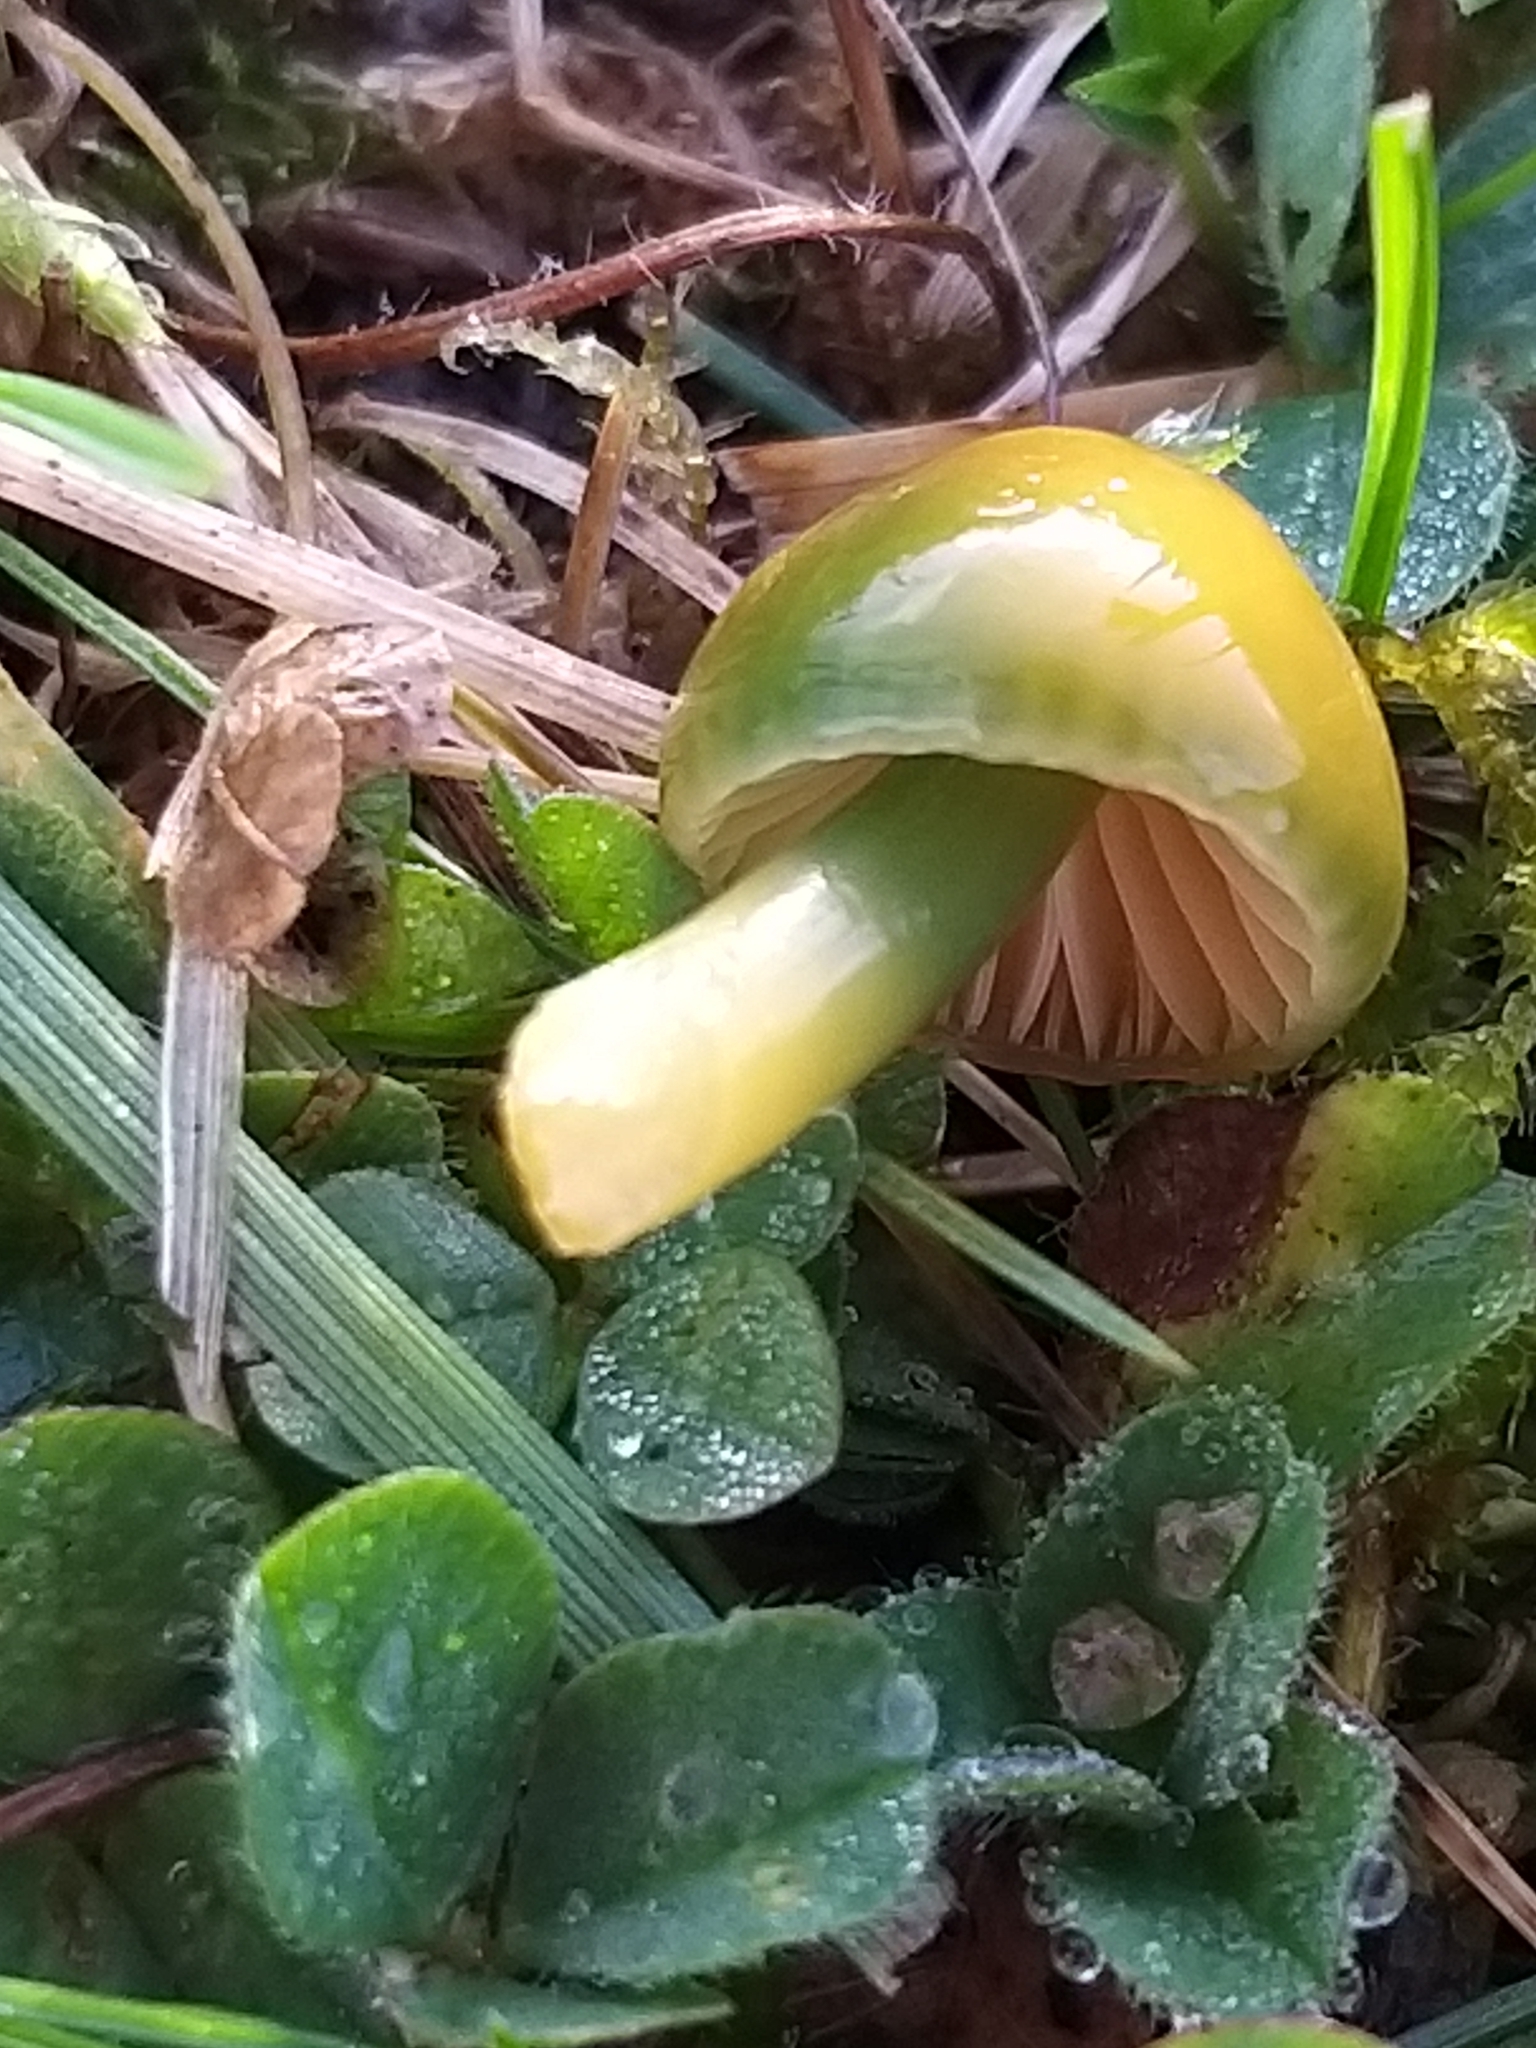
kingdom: Fungi
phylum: Basidiomycota
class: Agaricomycetes
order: Agaricales
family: Hygrophoraceae
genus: Gliophorus
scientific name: Gliophorus psittacinus
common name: Parrot wax-cap
